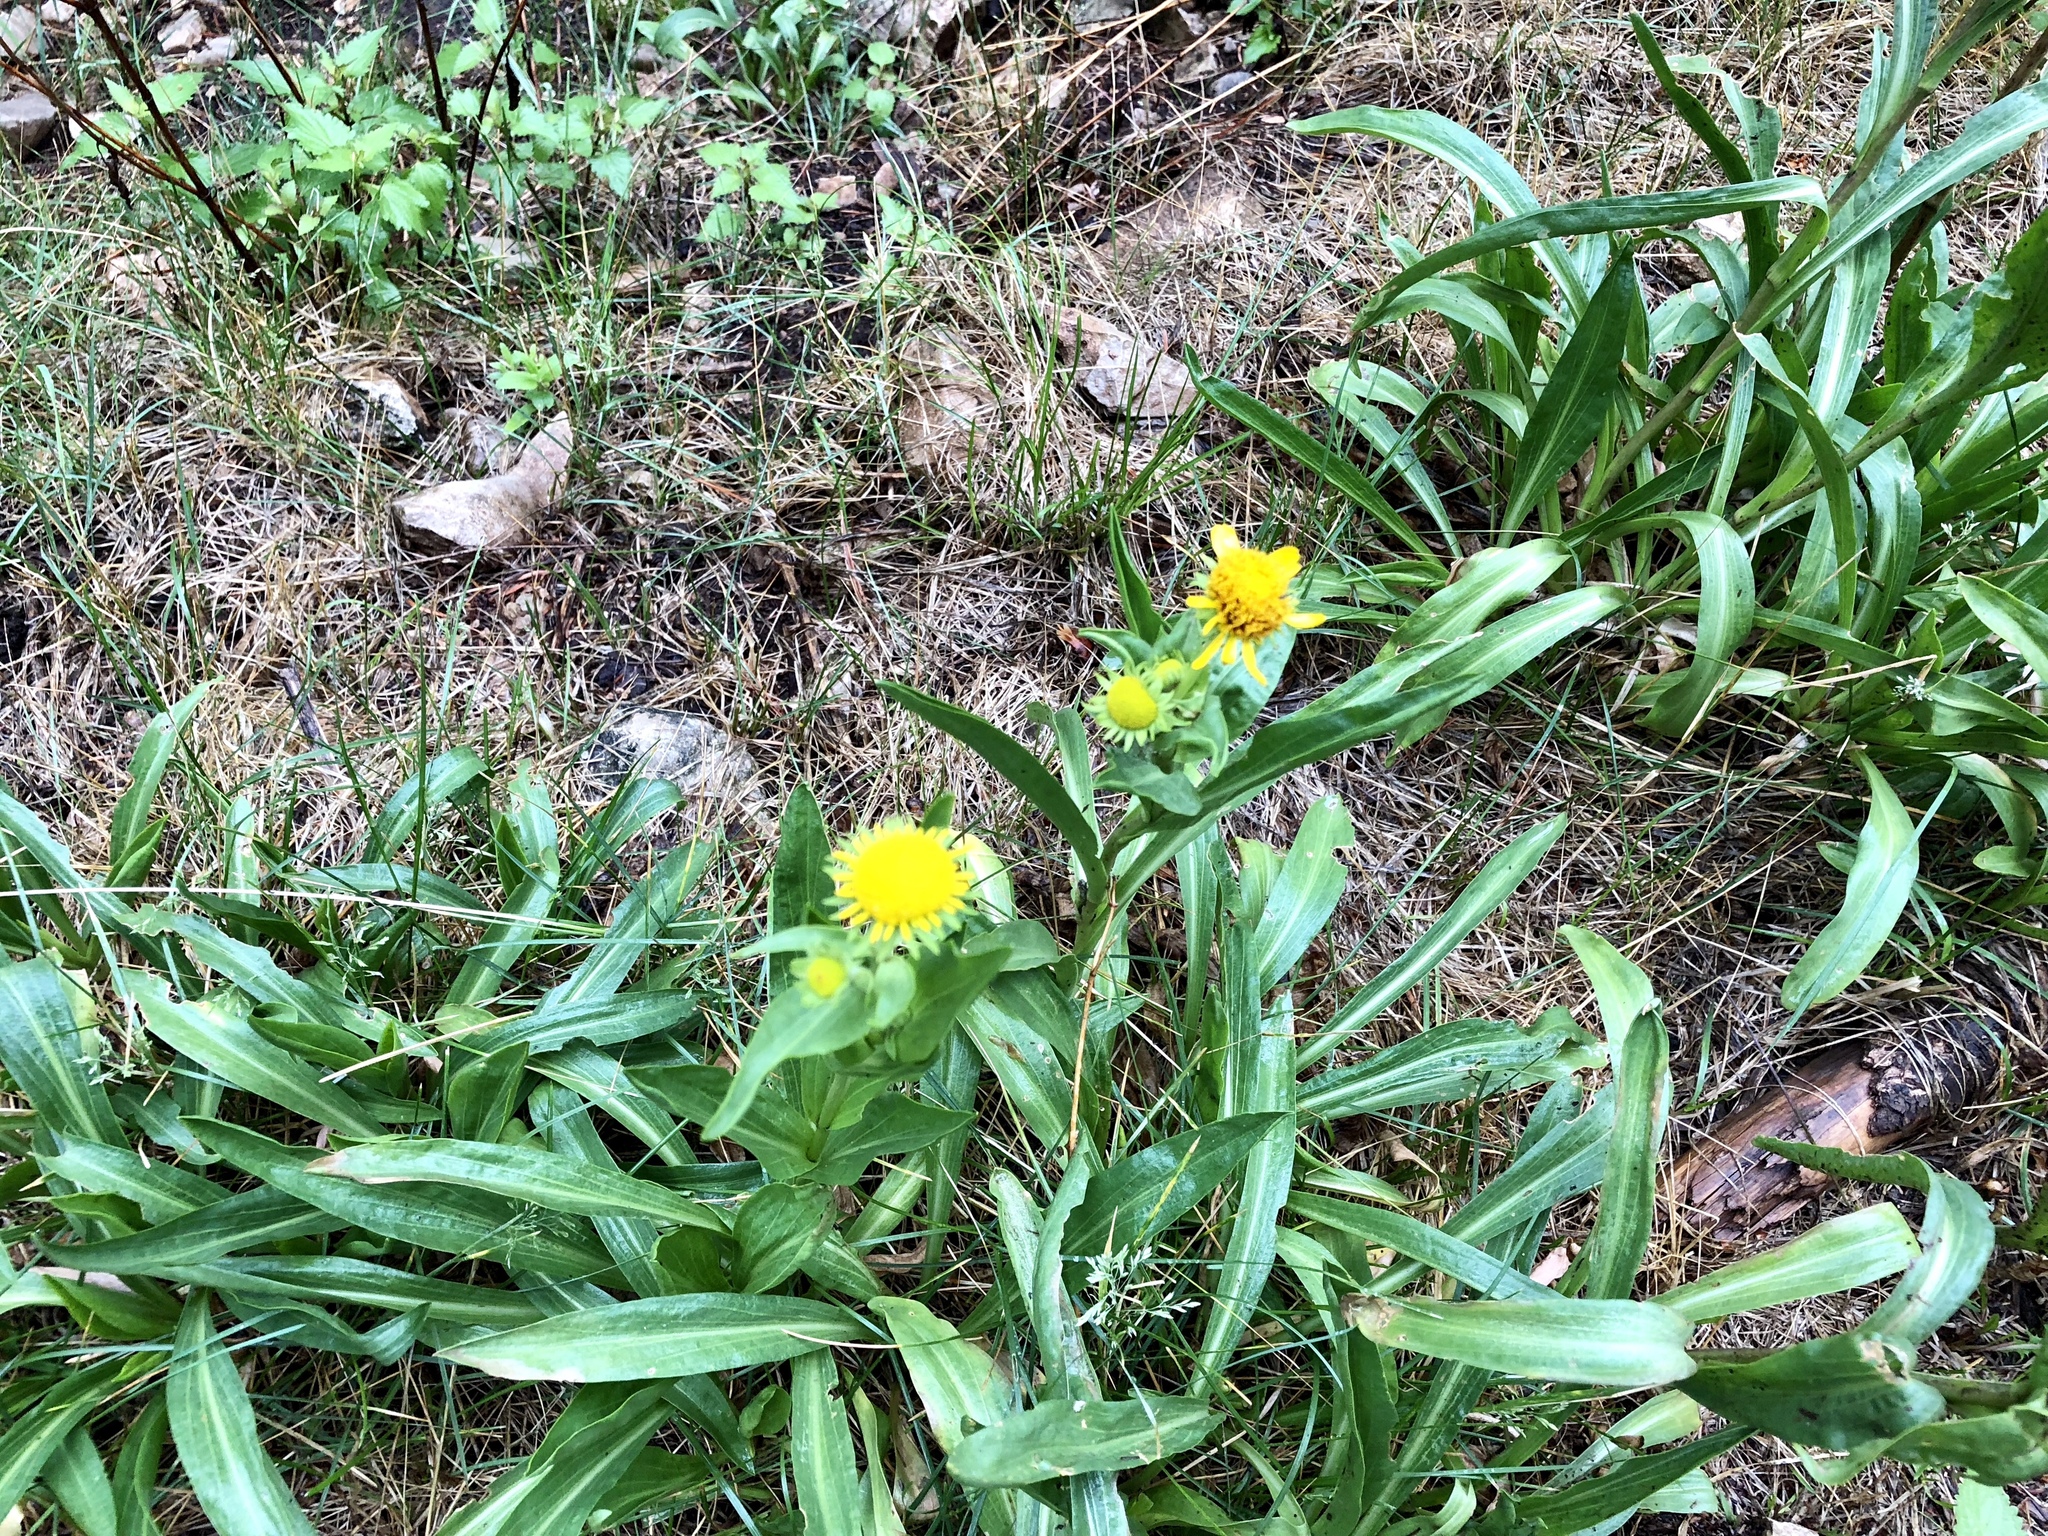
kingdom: Plantae
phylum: Tracheophyta
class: Magnoliopsida
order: Asterales
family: Asteraceae
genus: Hymenoxys
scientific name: Hymenoxys hoopesii
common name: Orange-sneezeweed
